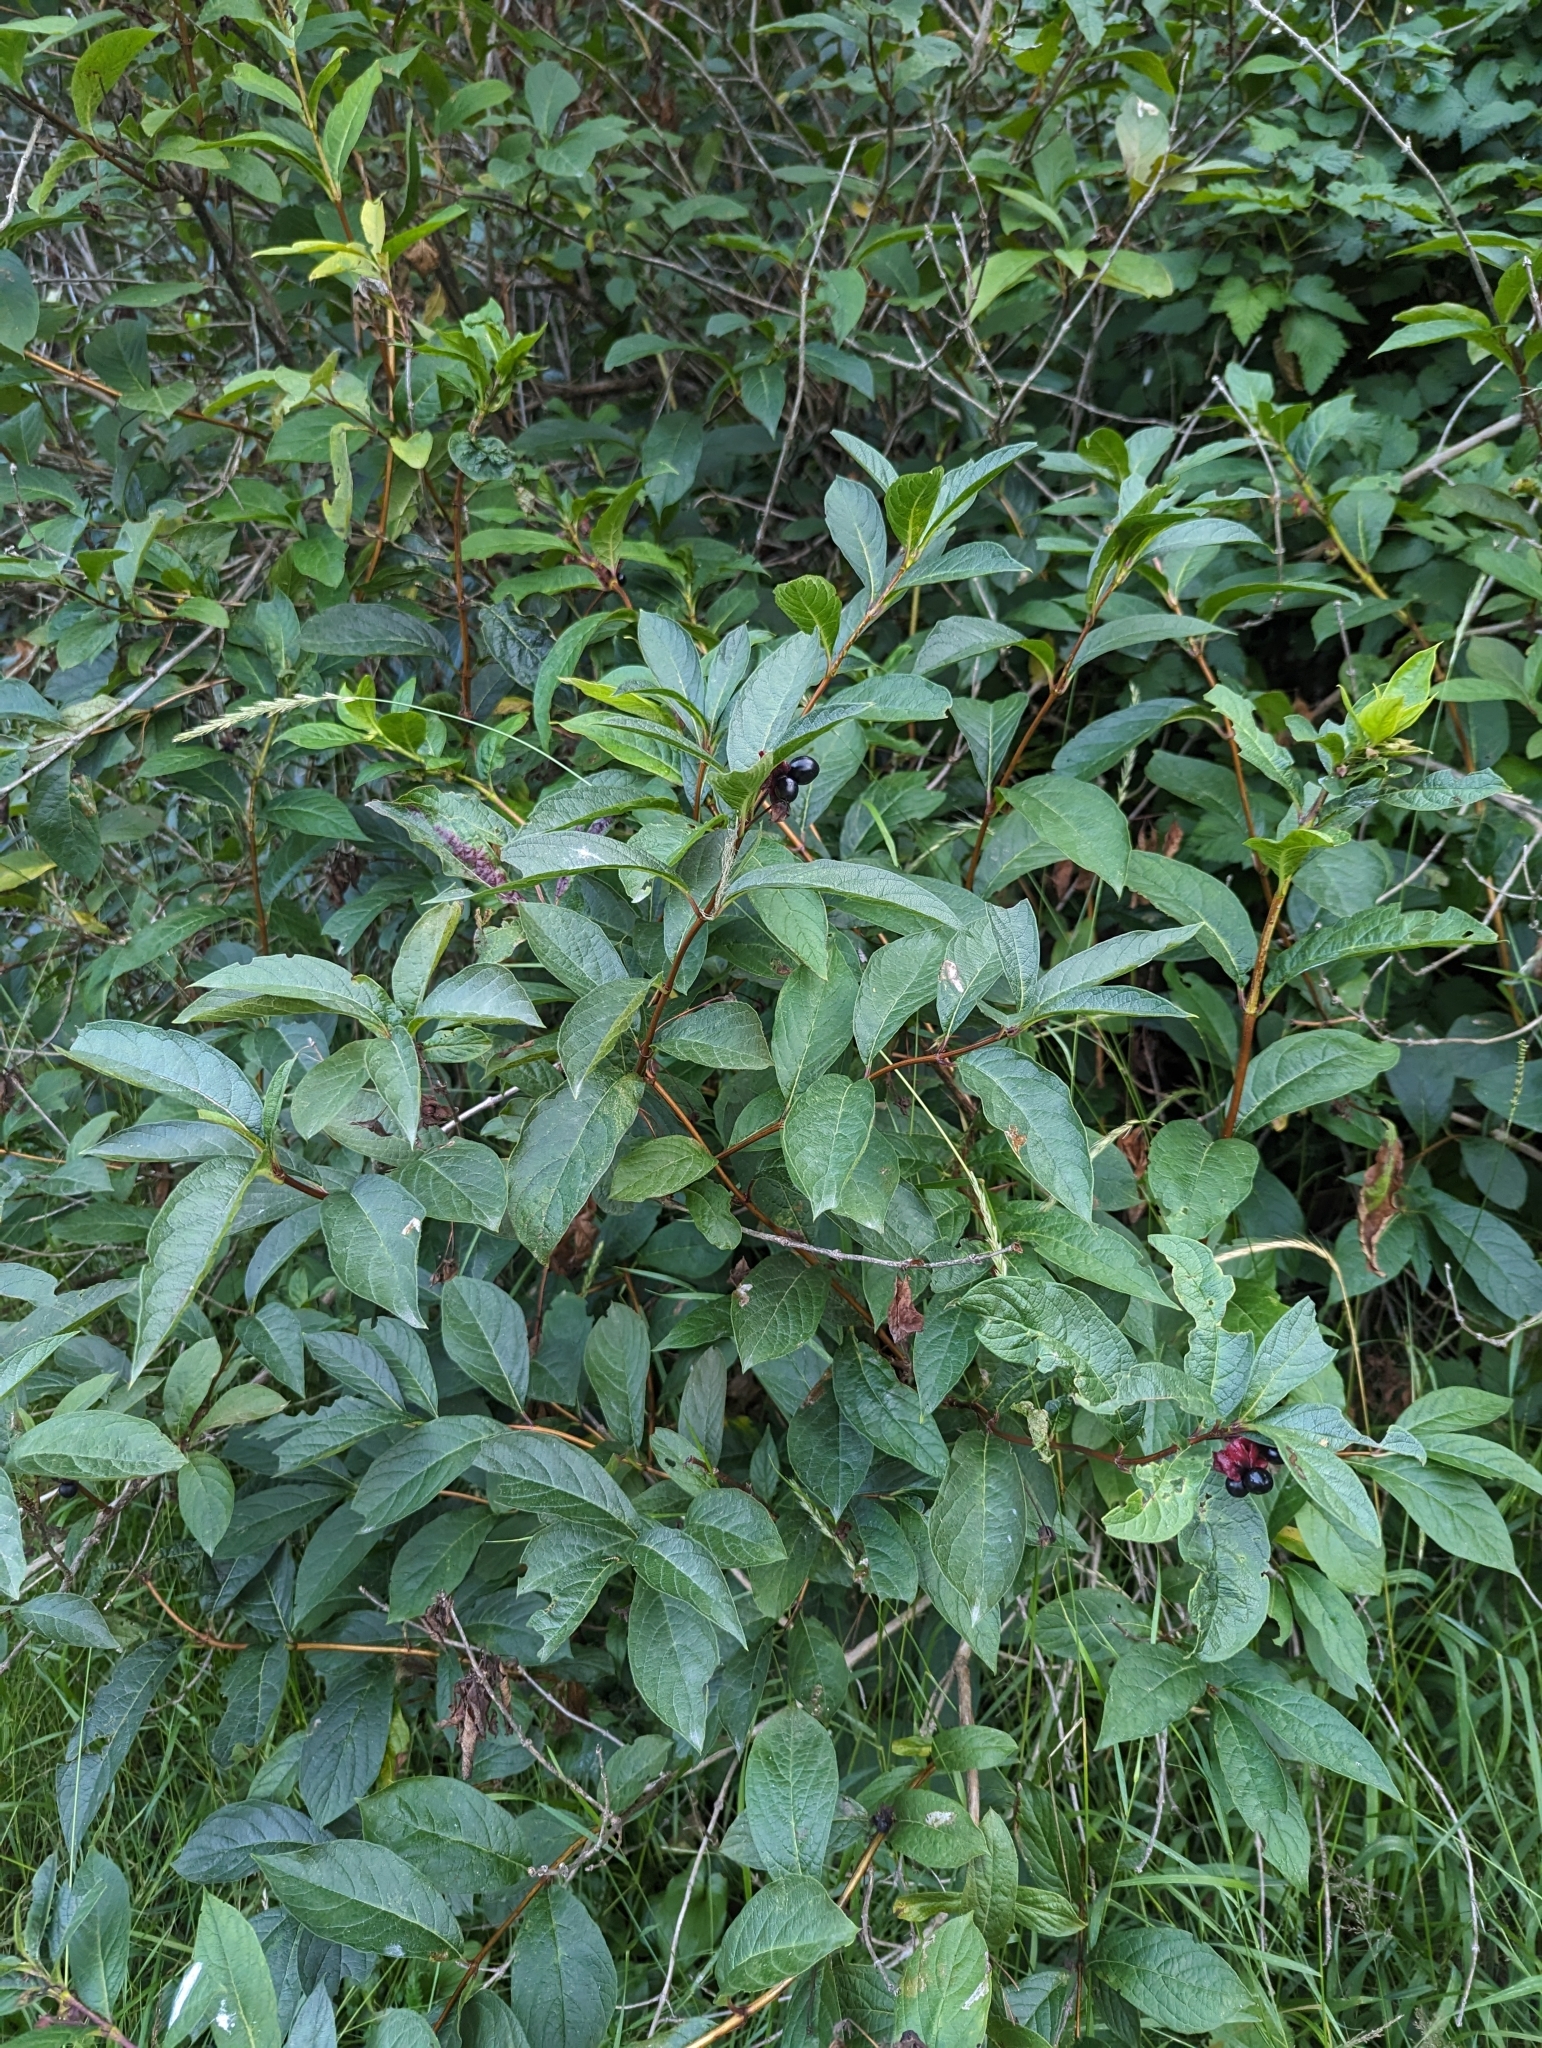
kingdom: Plantae
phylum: Tracheophyta
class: Magnoliopsida
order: Dipsacales
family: Caprifoliaceae
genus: Lonicera
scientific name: Lonicera involucrata
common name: Californian honeysuckle
